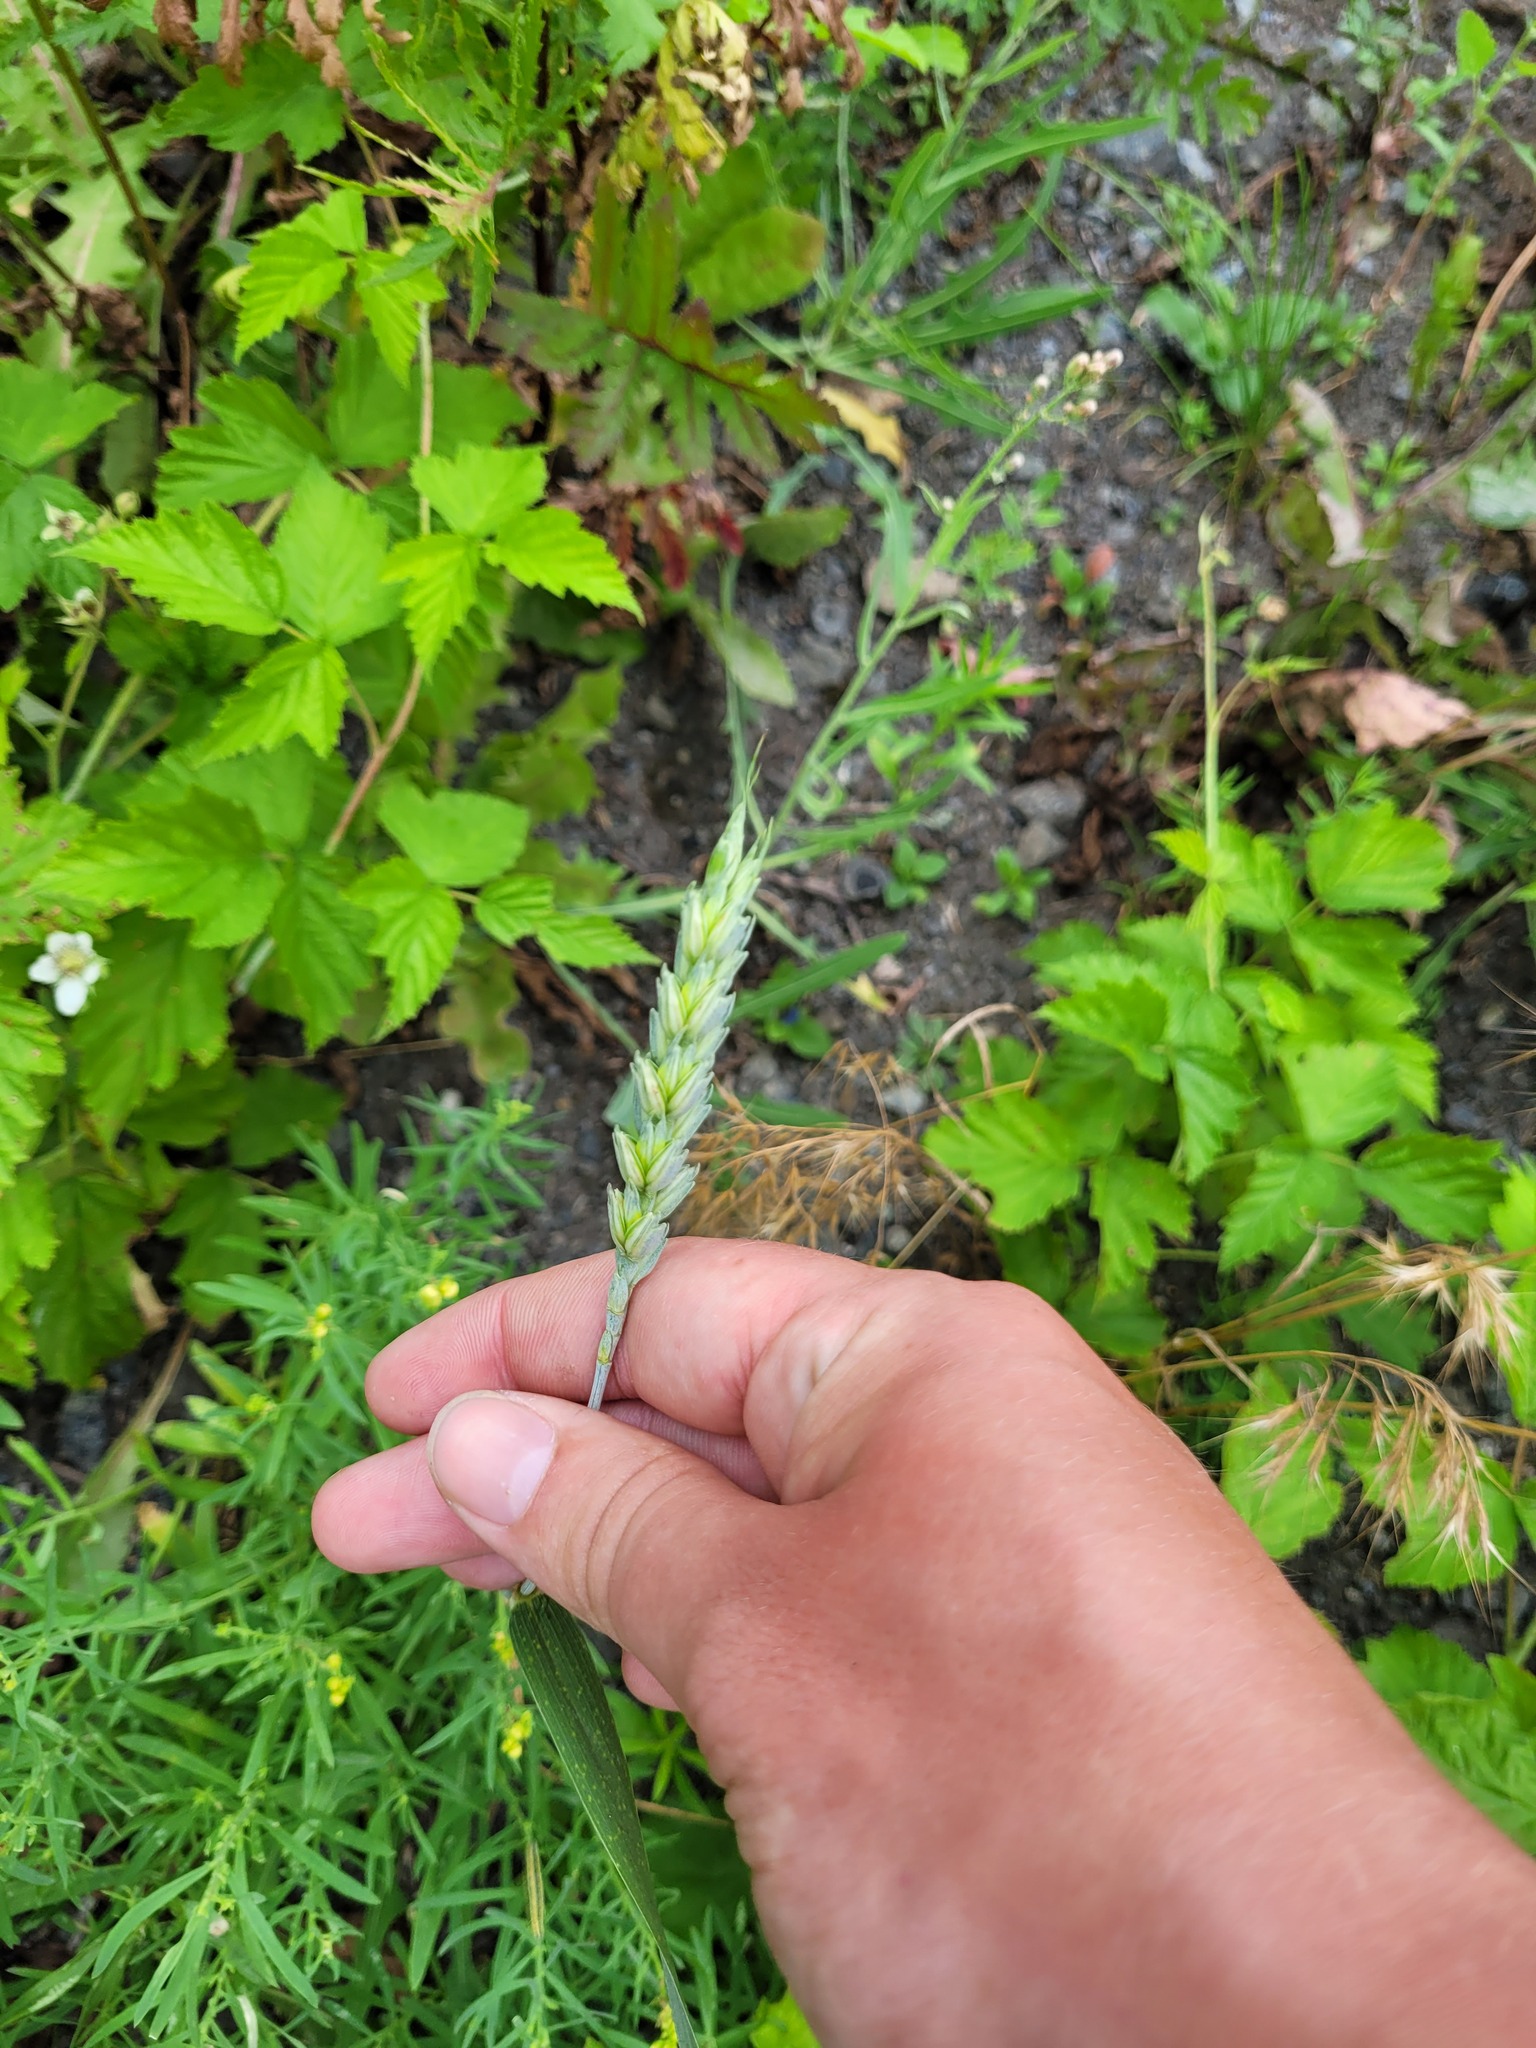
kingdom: Plantae
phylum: Tracheophyta
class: Liliopsida
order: Poales
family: Poaceae
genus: Triticum
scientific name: Triticum aestivum
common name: Common wheat
